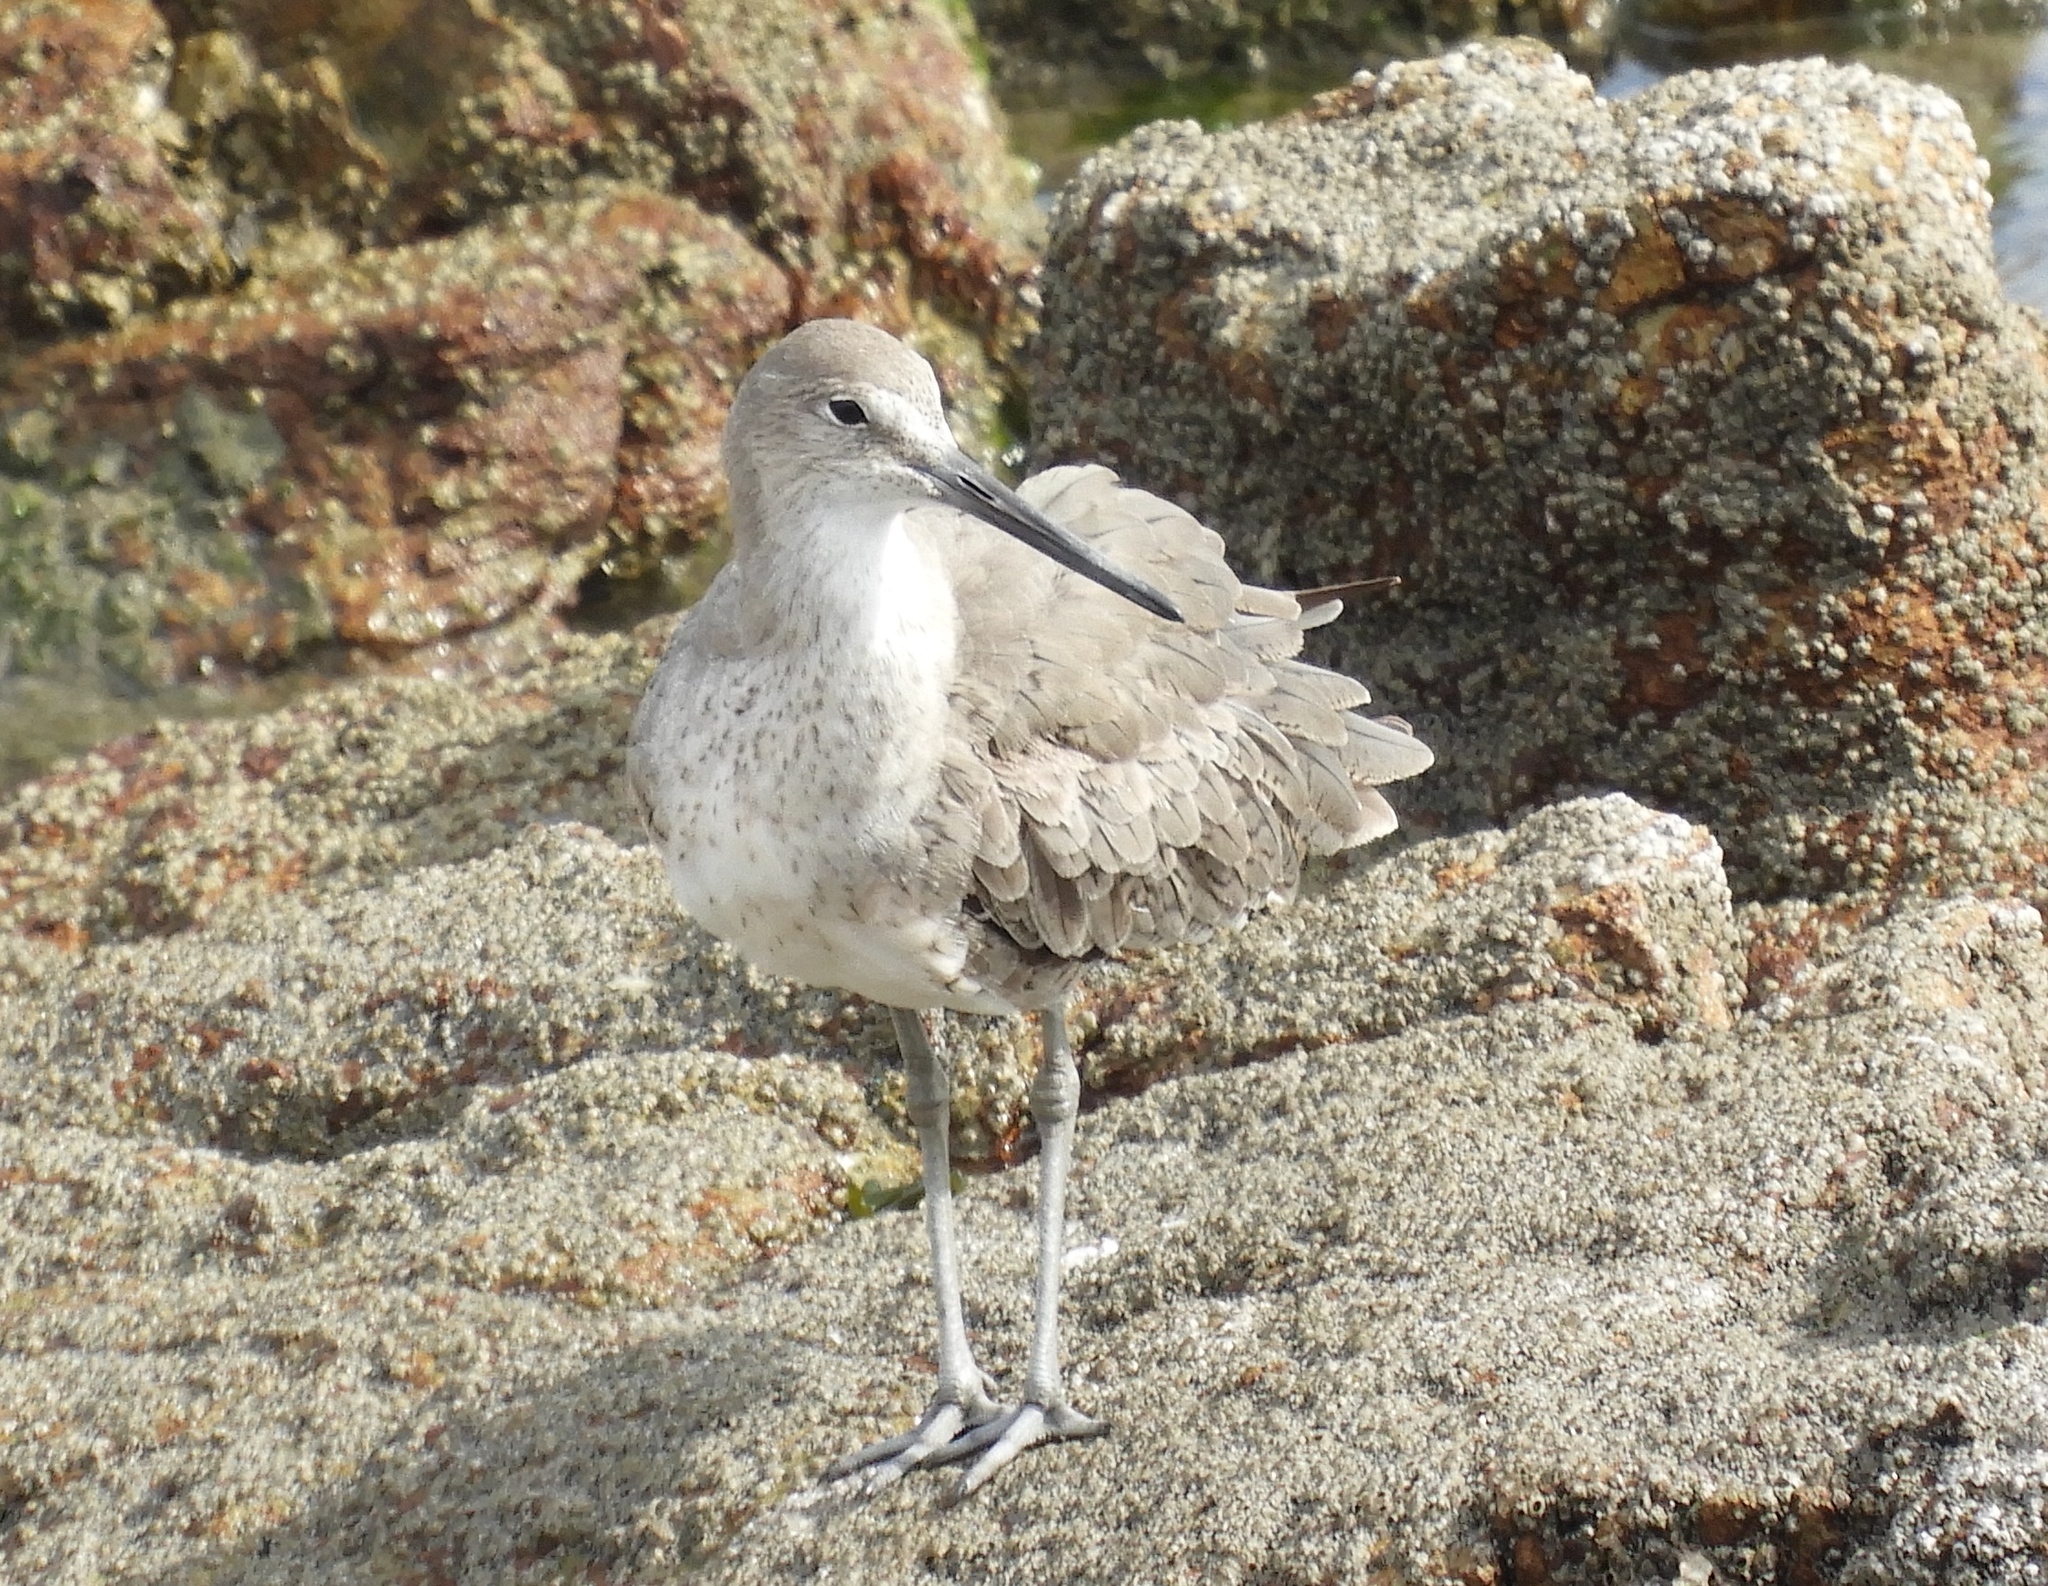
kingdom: Animalia
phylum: Chordata
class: Aves
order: Charadriiformes
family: Scolopacidae
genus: Tringa
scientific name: Tringa semipalmata
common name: Willet
